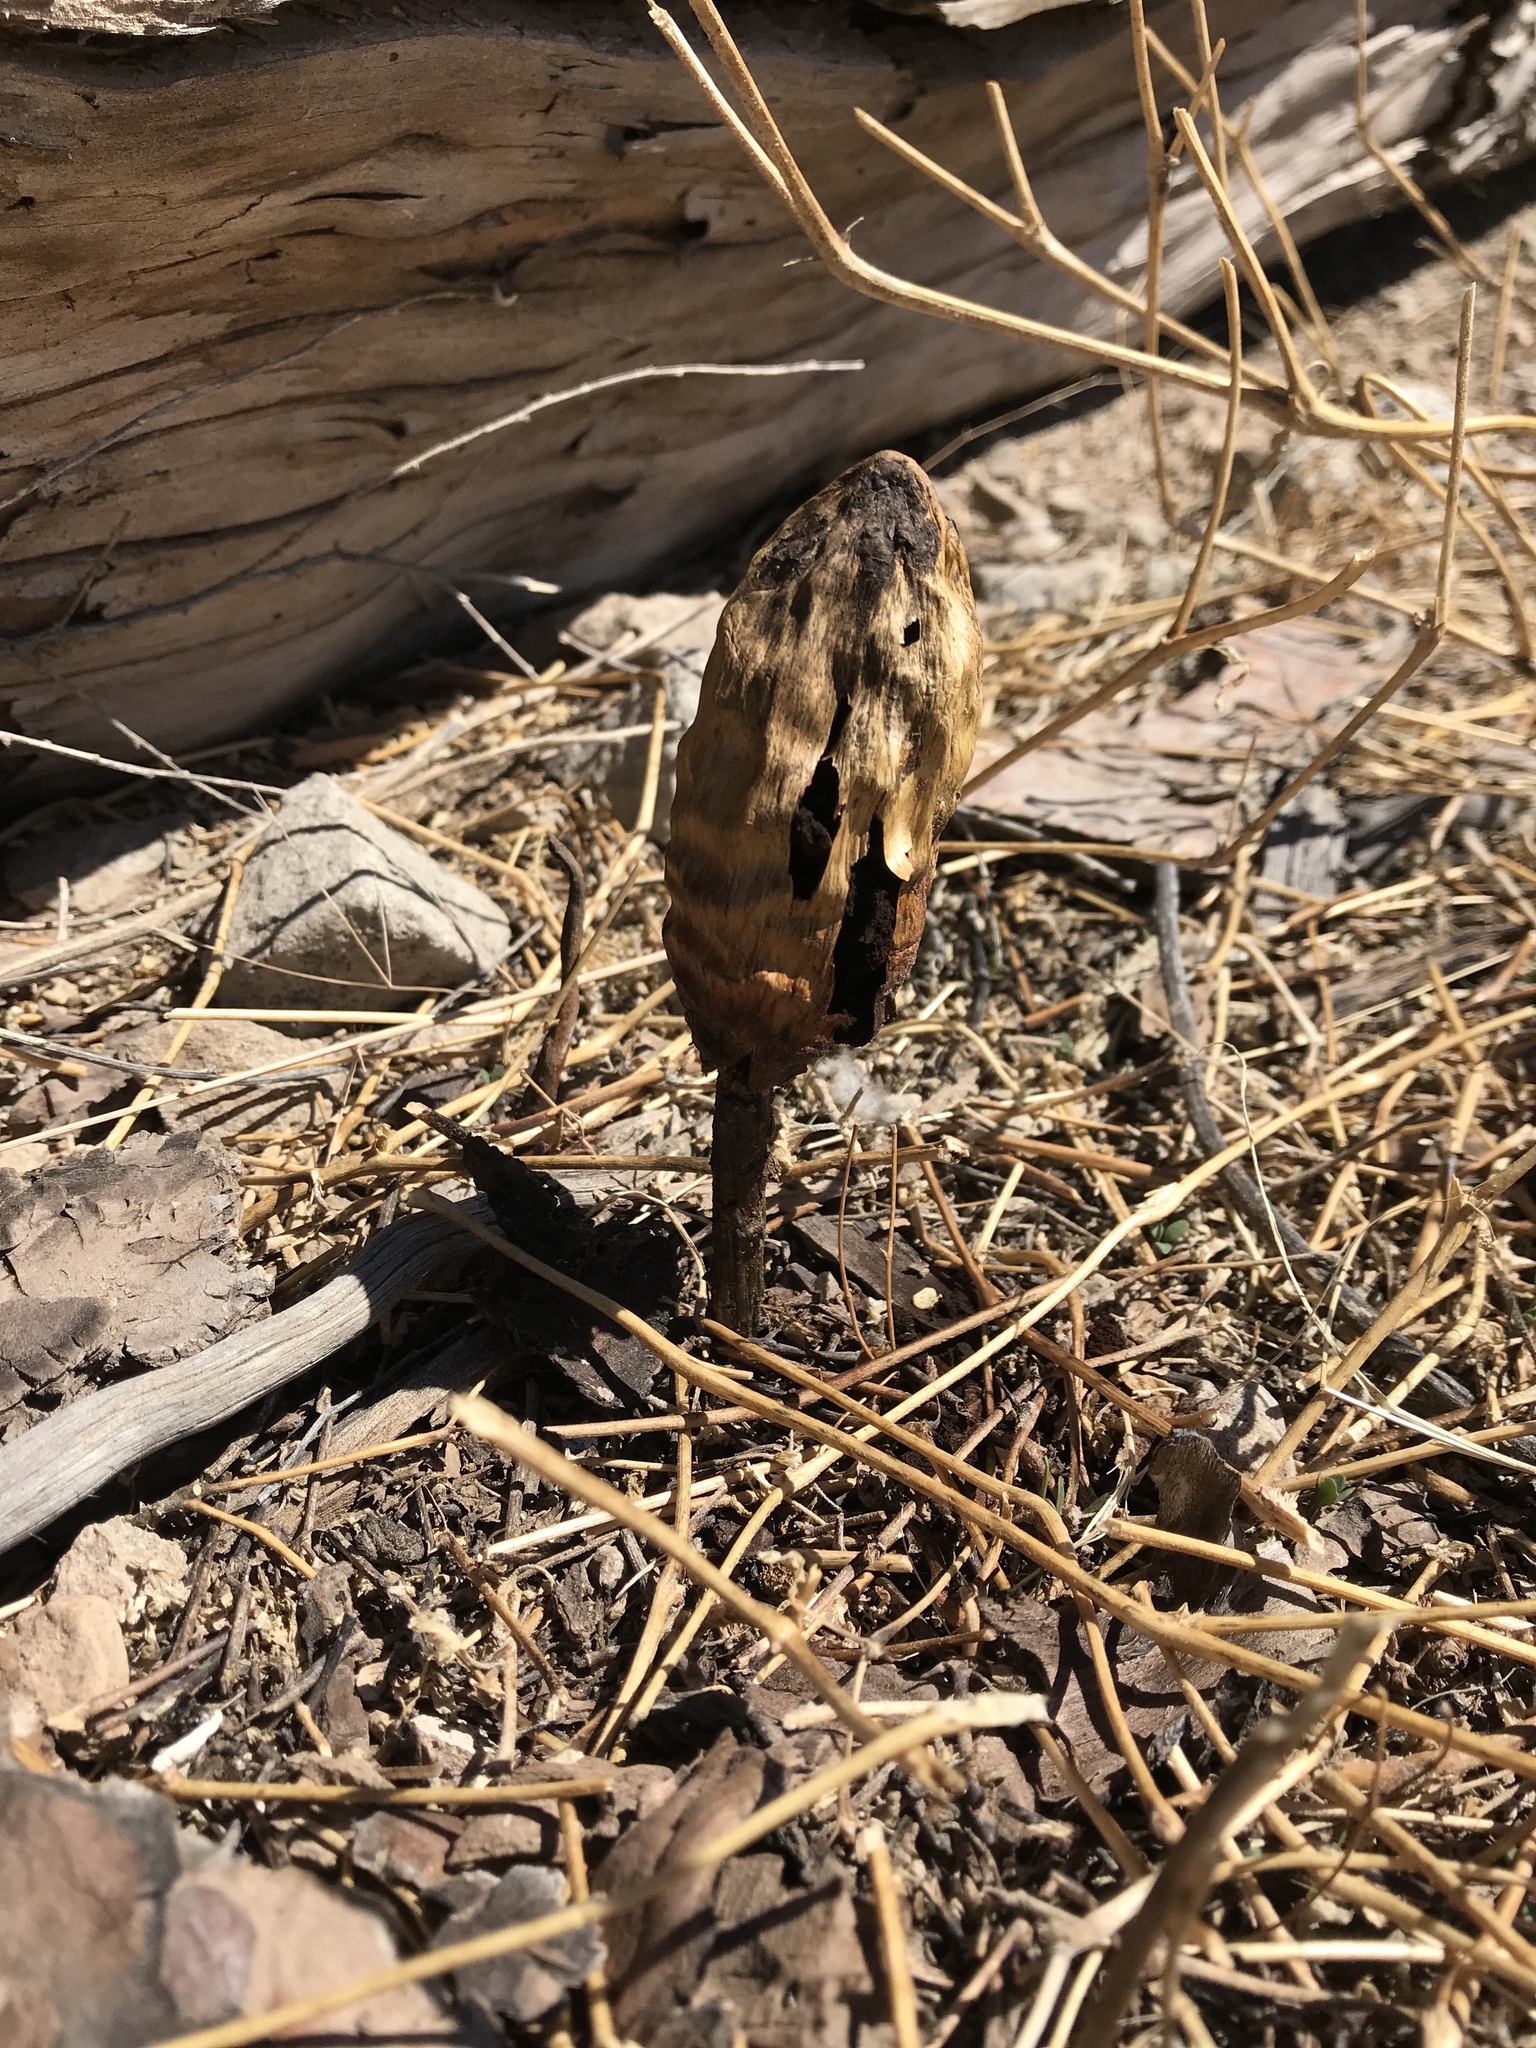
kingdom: Fungi
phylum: Basidiomycota
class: Agaricomycetes
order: Agaricales
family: Agaricaceae
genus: Podaxis
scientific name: Podaxis pistillaris
